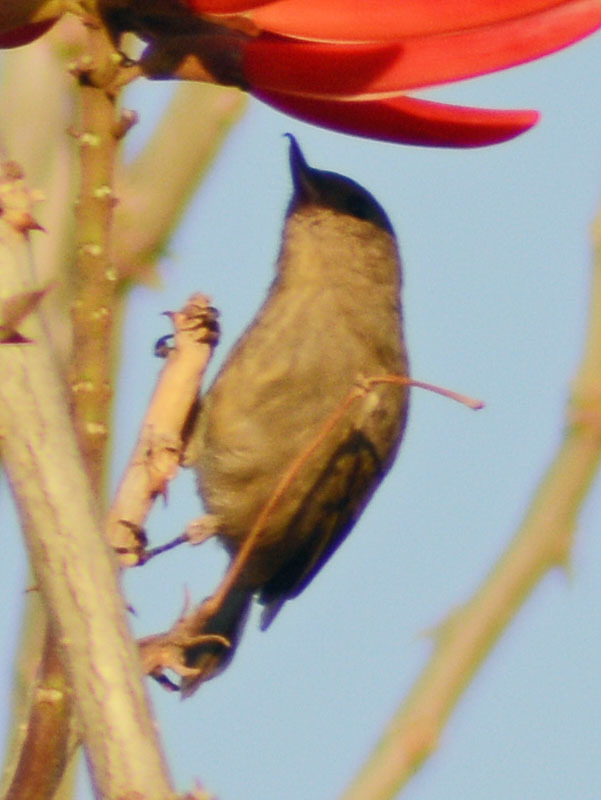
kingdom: Animalia
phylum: Chordata
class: Aves
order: Passeriformes
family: Thraupidae
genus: Diglossa
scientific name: Diglossa baritula
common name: Cinnamon-bellied flowerpiercer
